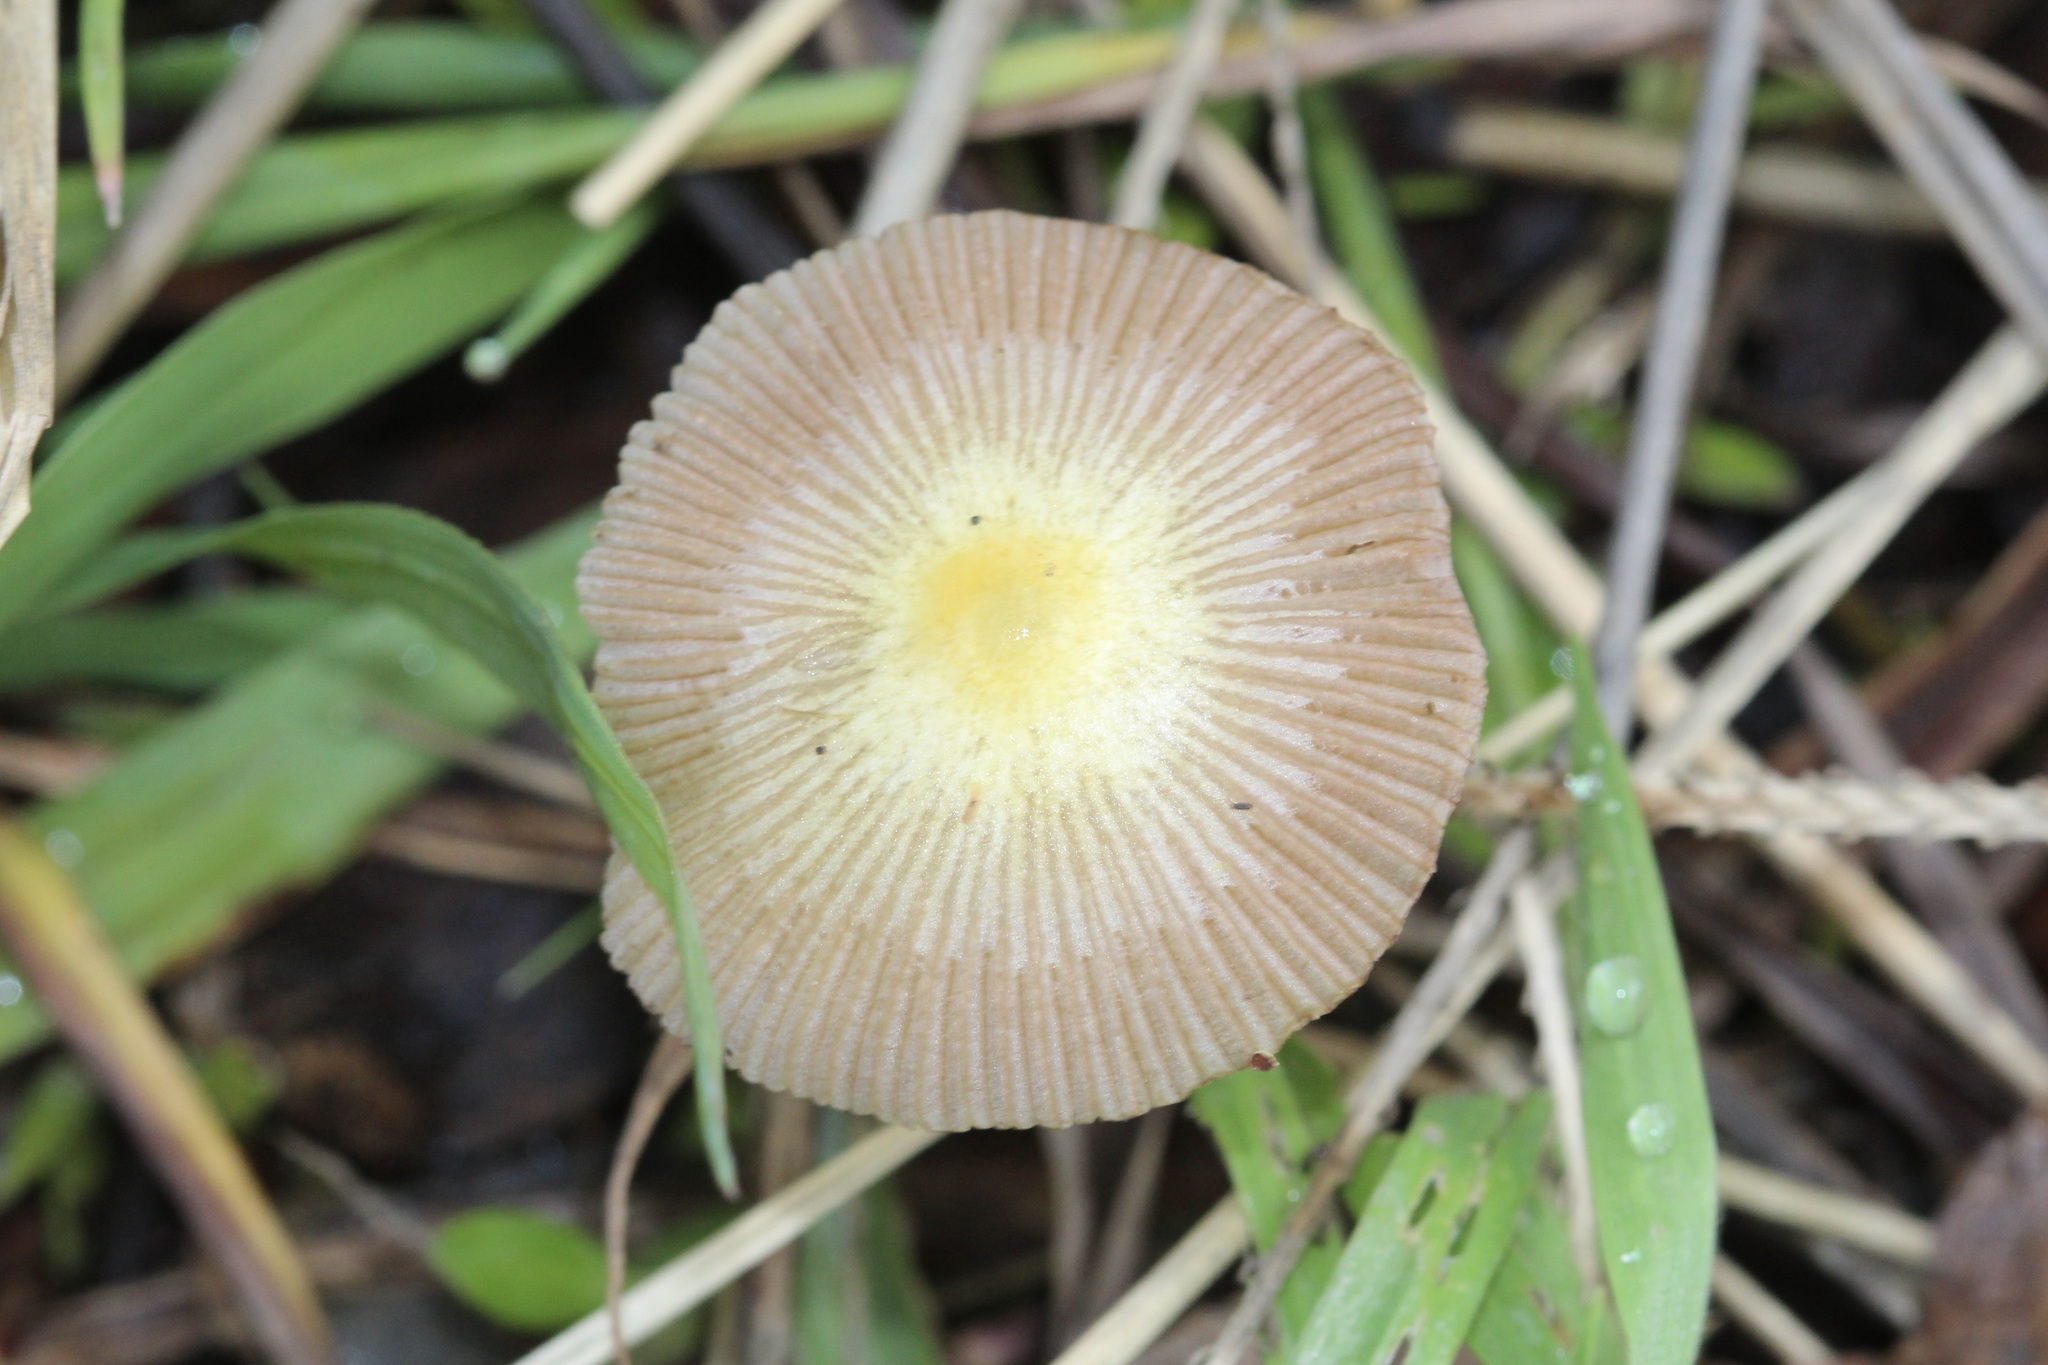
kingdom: Fungi
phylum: Basidiomycota
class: Agaricomycetes
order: Agaricales
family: Bolbitiaceae
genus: Bolbitius
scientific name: Bolbitius titubans
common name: Yellow fieldcap
